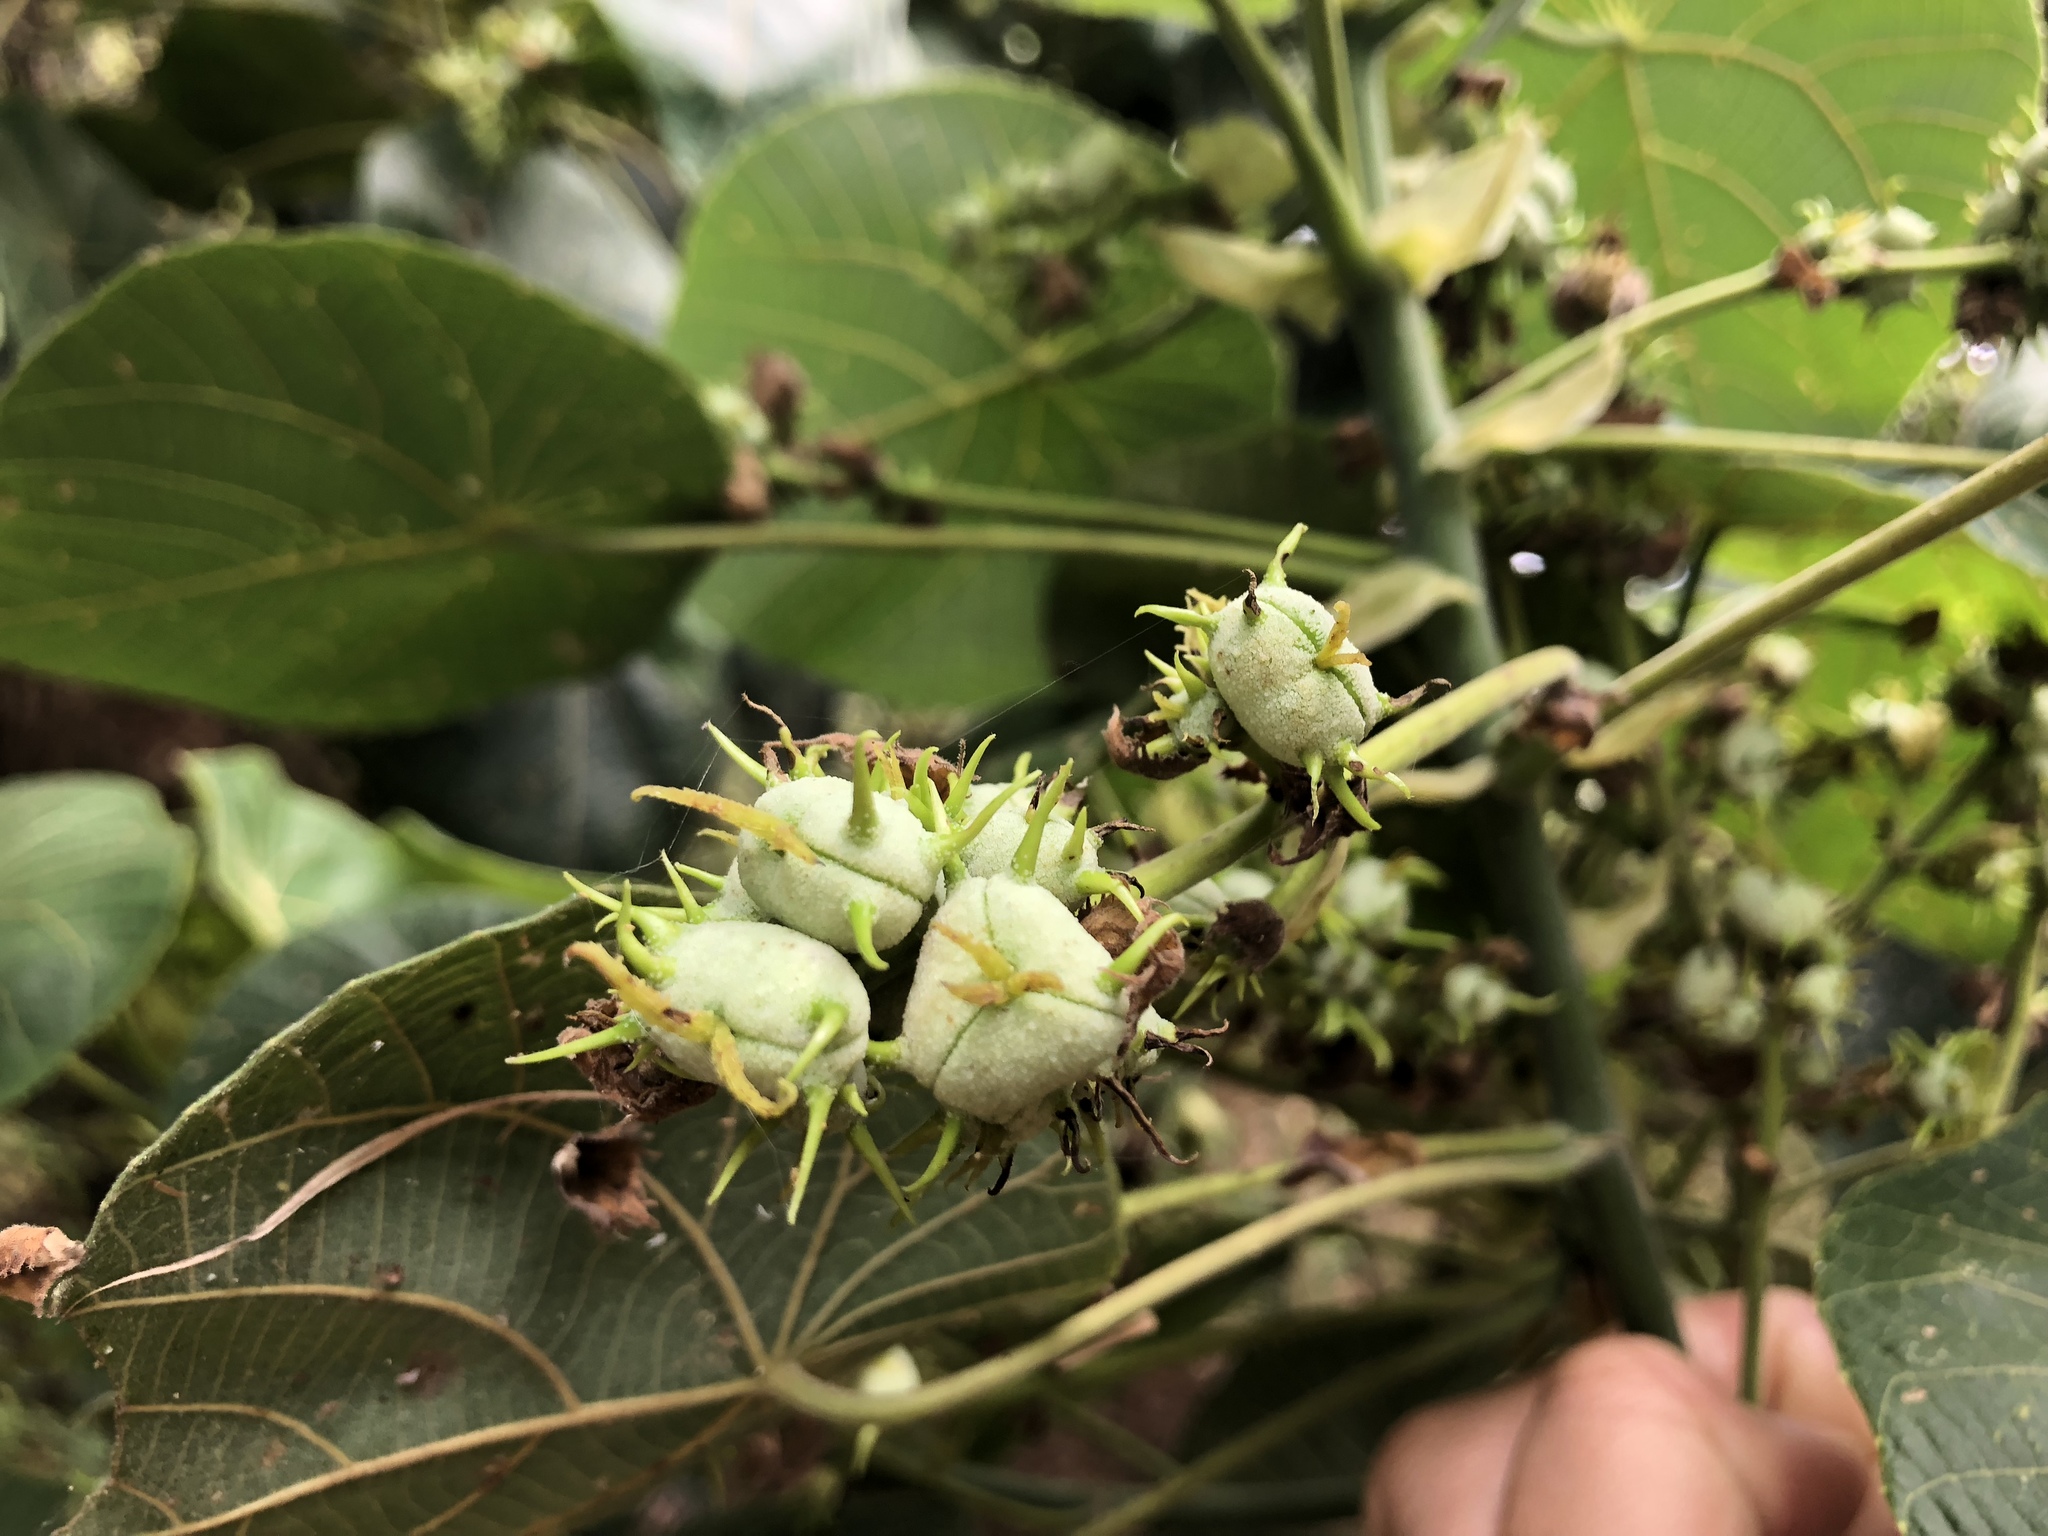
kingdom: Plantae
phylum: Tracheophyta
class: Magnoliopsida
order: Malpighiales
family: Euphorbiaceae
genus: Macaranga
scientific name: Macaranga tanarius
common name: Parasol leaf tree
